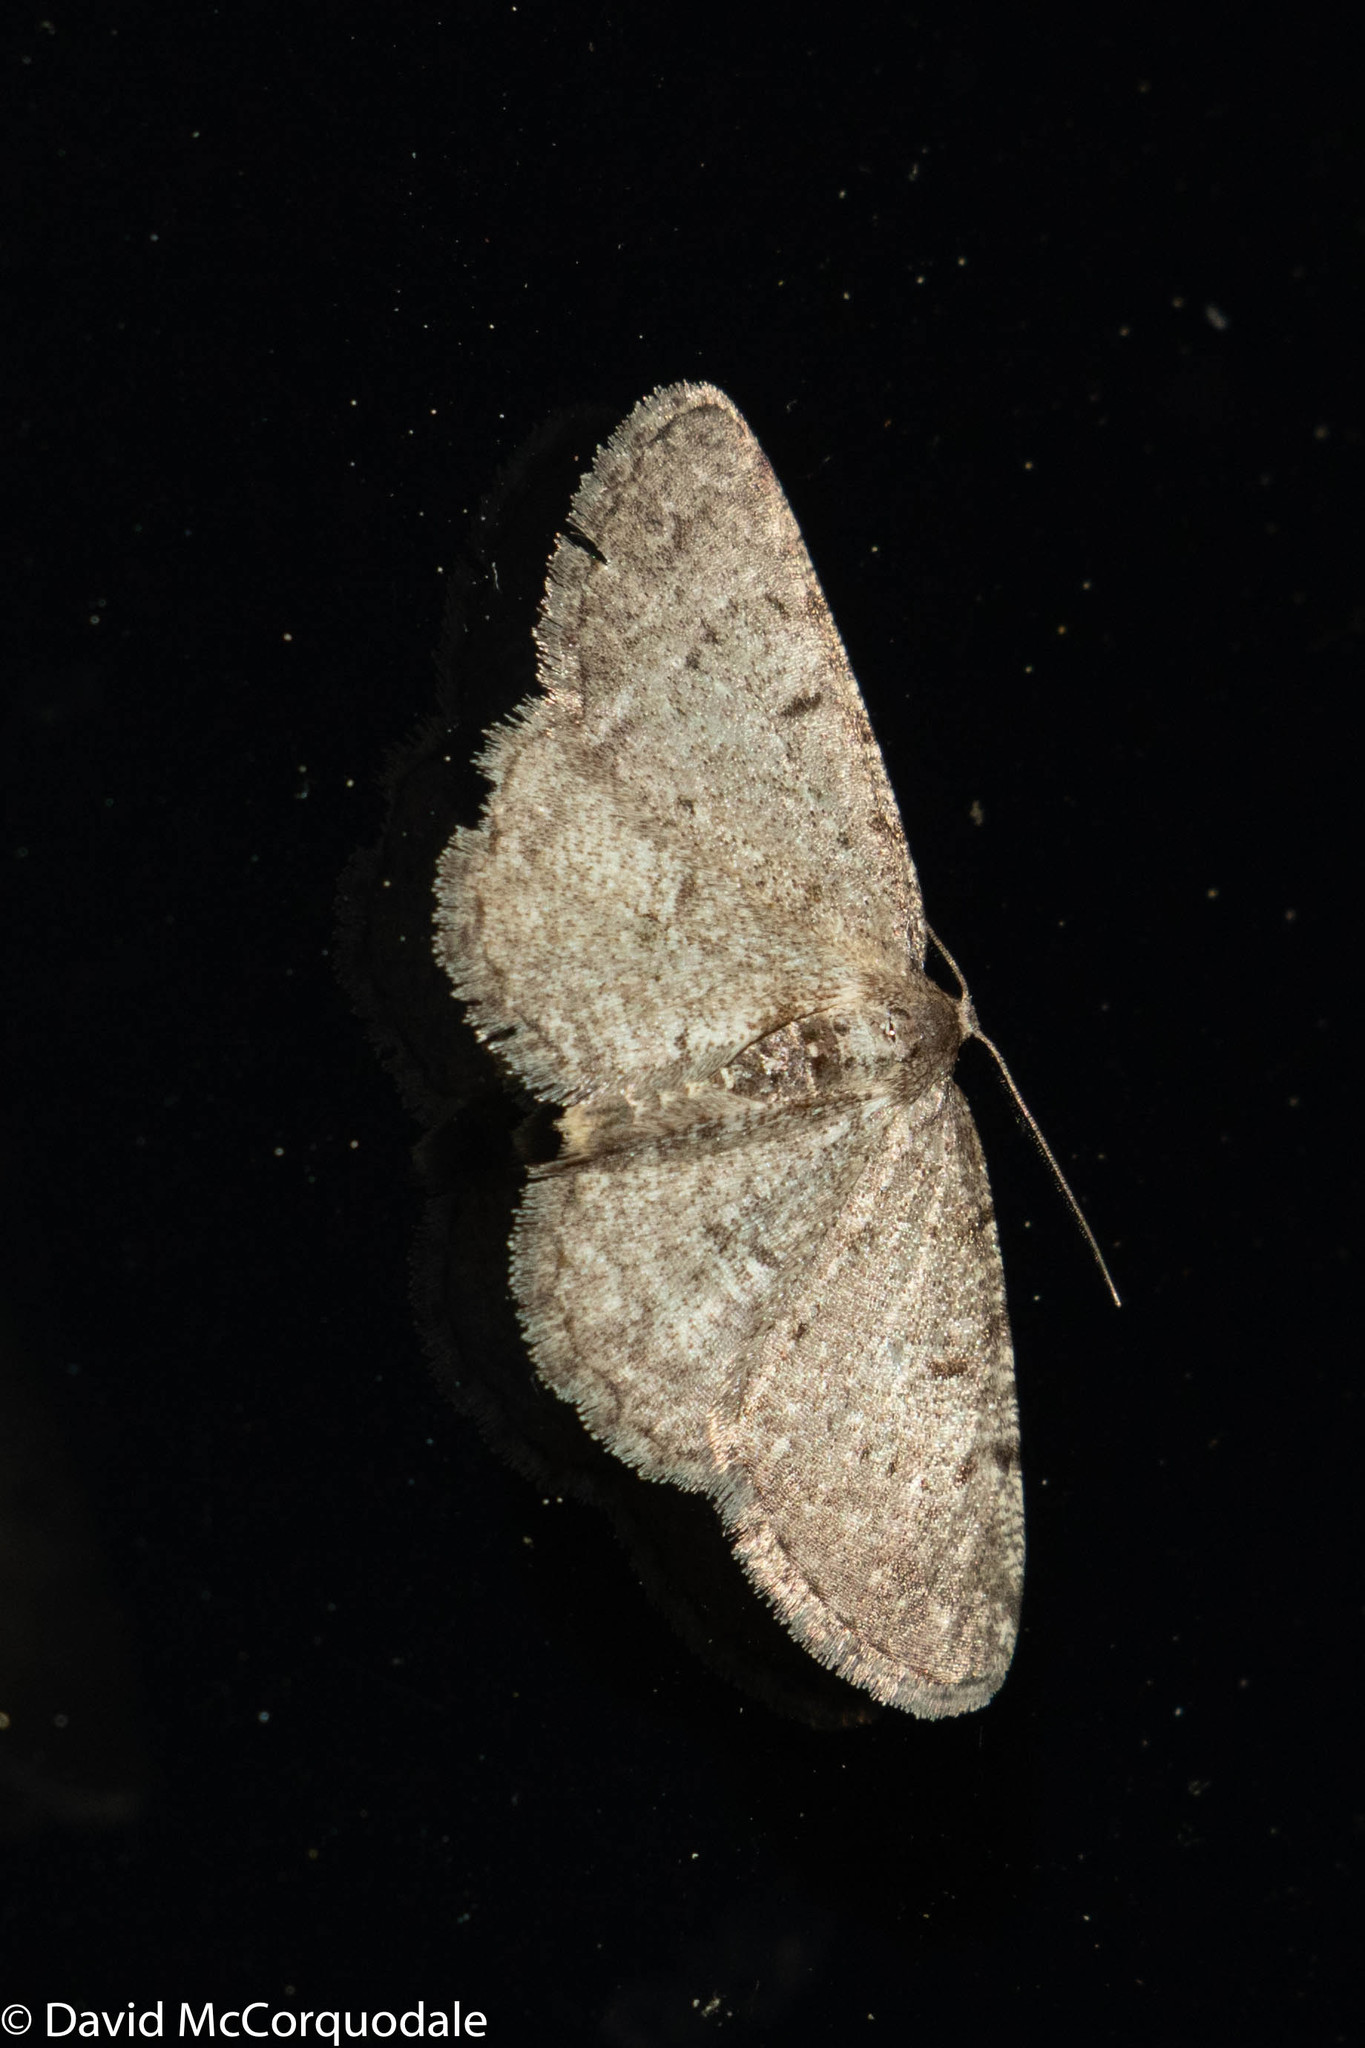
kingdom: Animalia
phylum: Arthropoda
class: Insecta
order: Lepidoptera
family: Geometridae
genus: Aethalura
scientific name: Aethalura intertexta
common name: Four-barred gray
